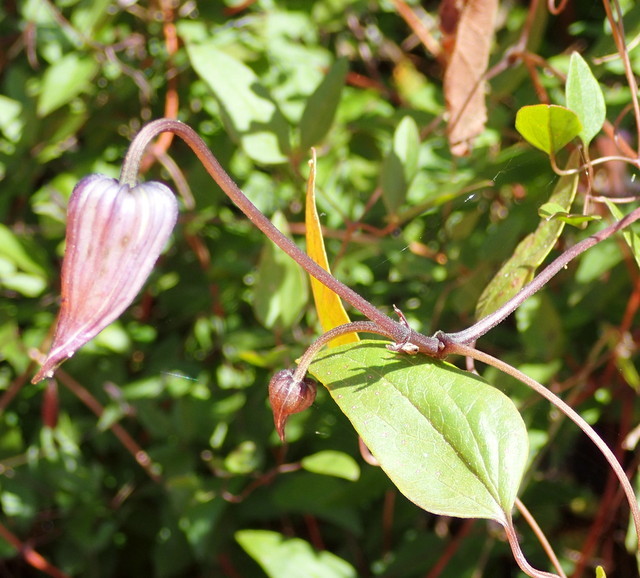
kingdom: Plantae
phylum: Tracheophyta
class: Magnoliopsida
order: Ranunculales
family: Ranunculaceae
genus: Clematis
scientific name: Clematis crispa
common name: Curly clematis
